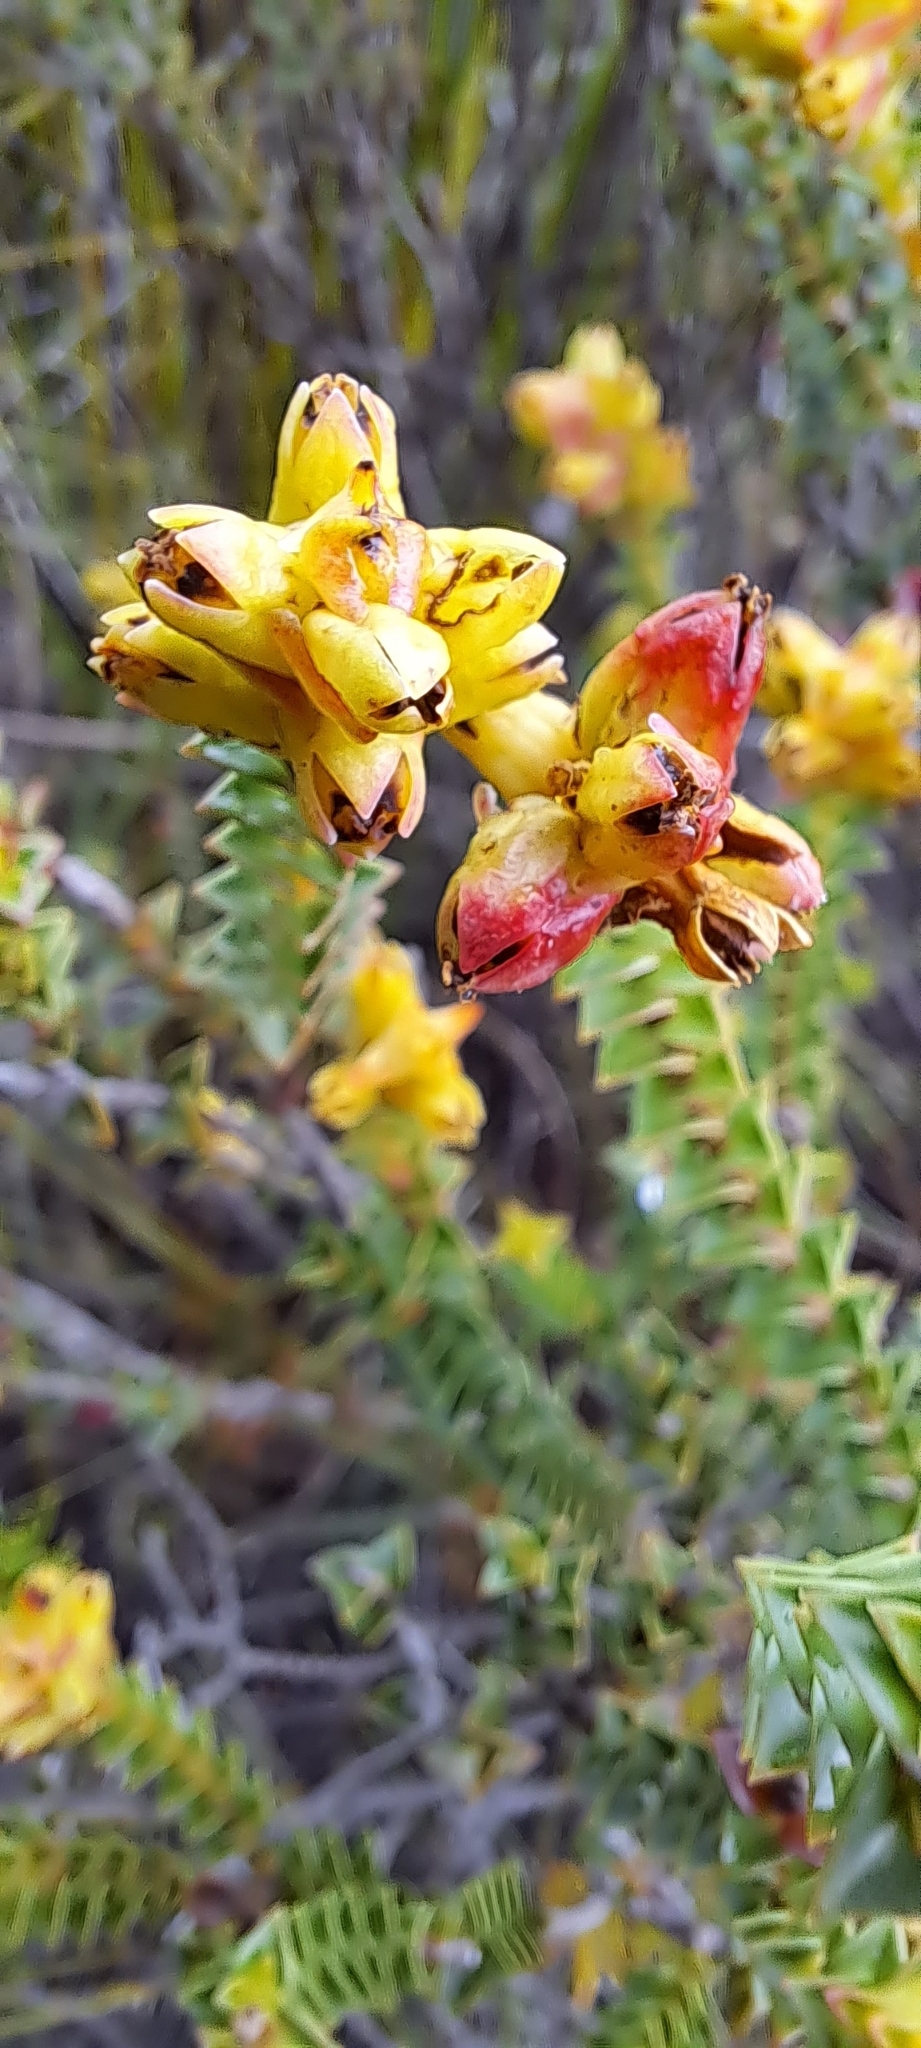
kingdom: Plantae
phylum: Tracheophyta
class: Magnoliopsida
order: Myrtales
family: Penaeaceae
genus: Penaea
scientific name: Penaea mucronata
